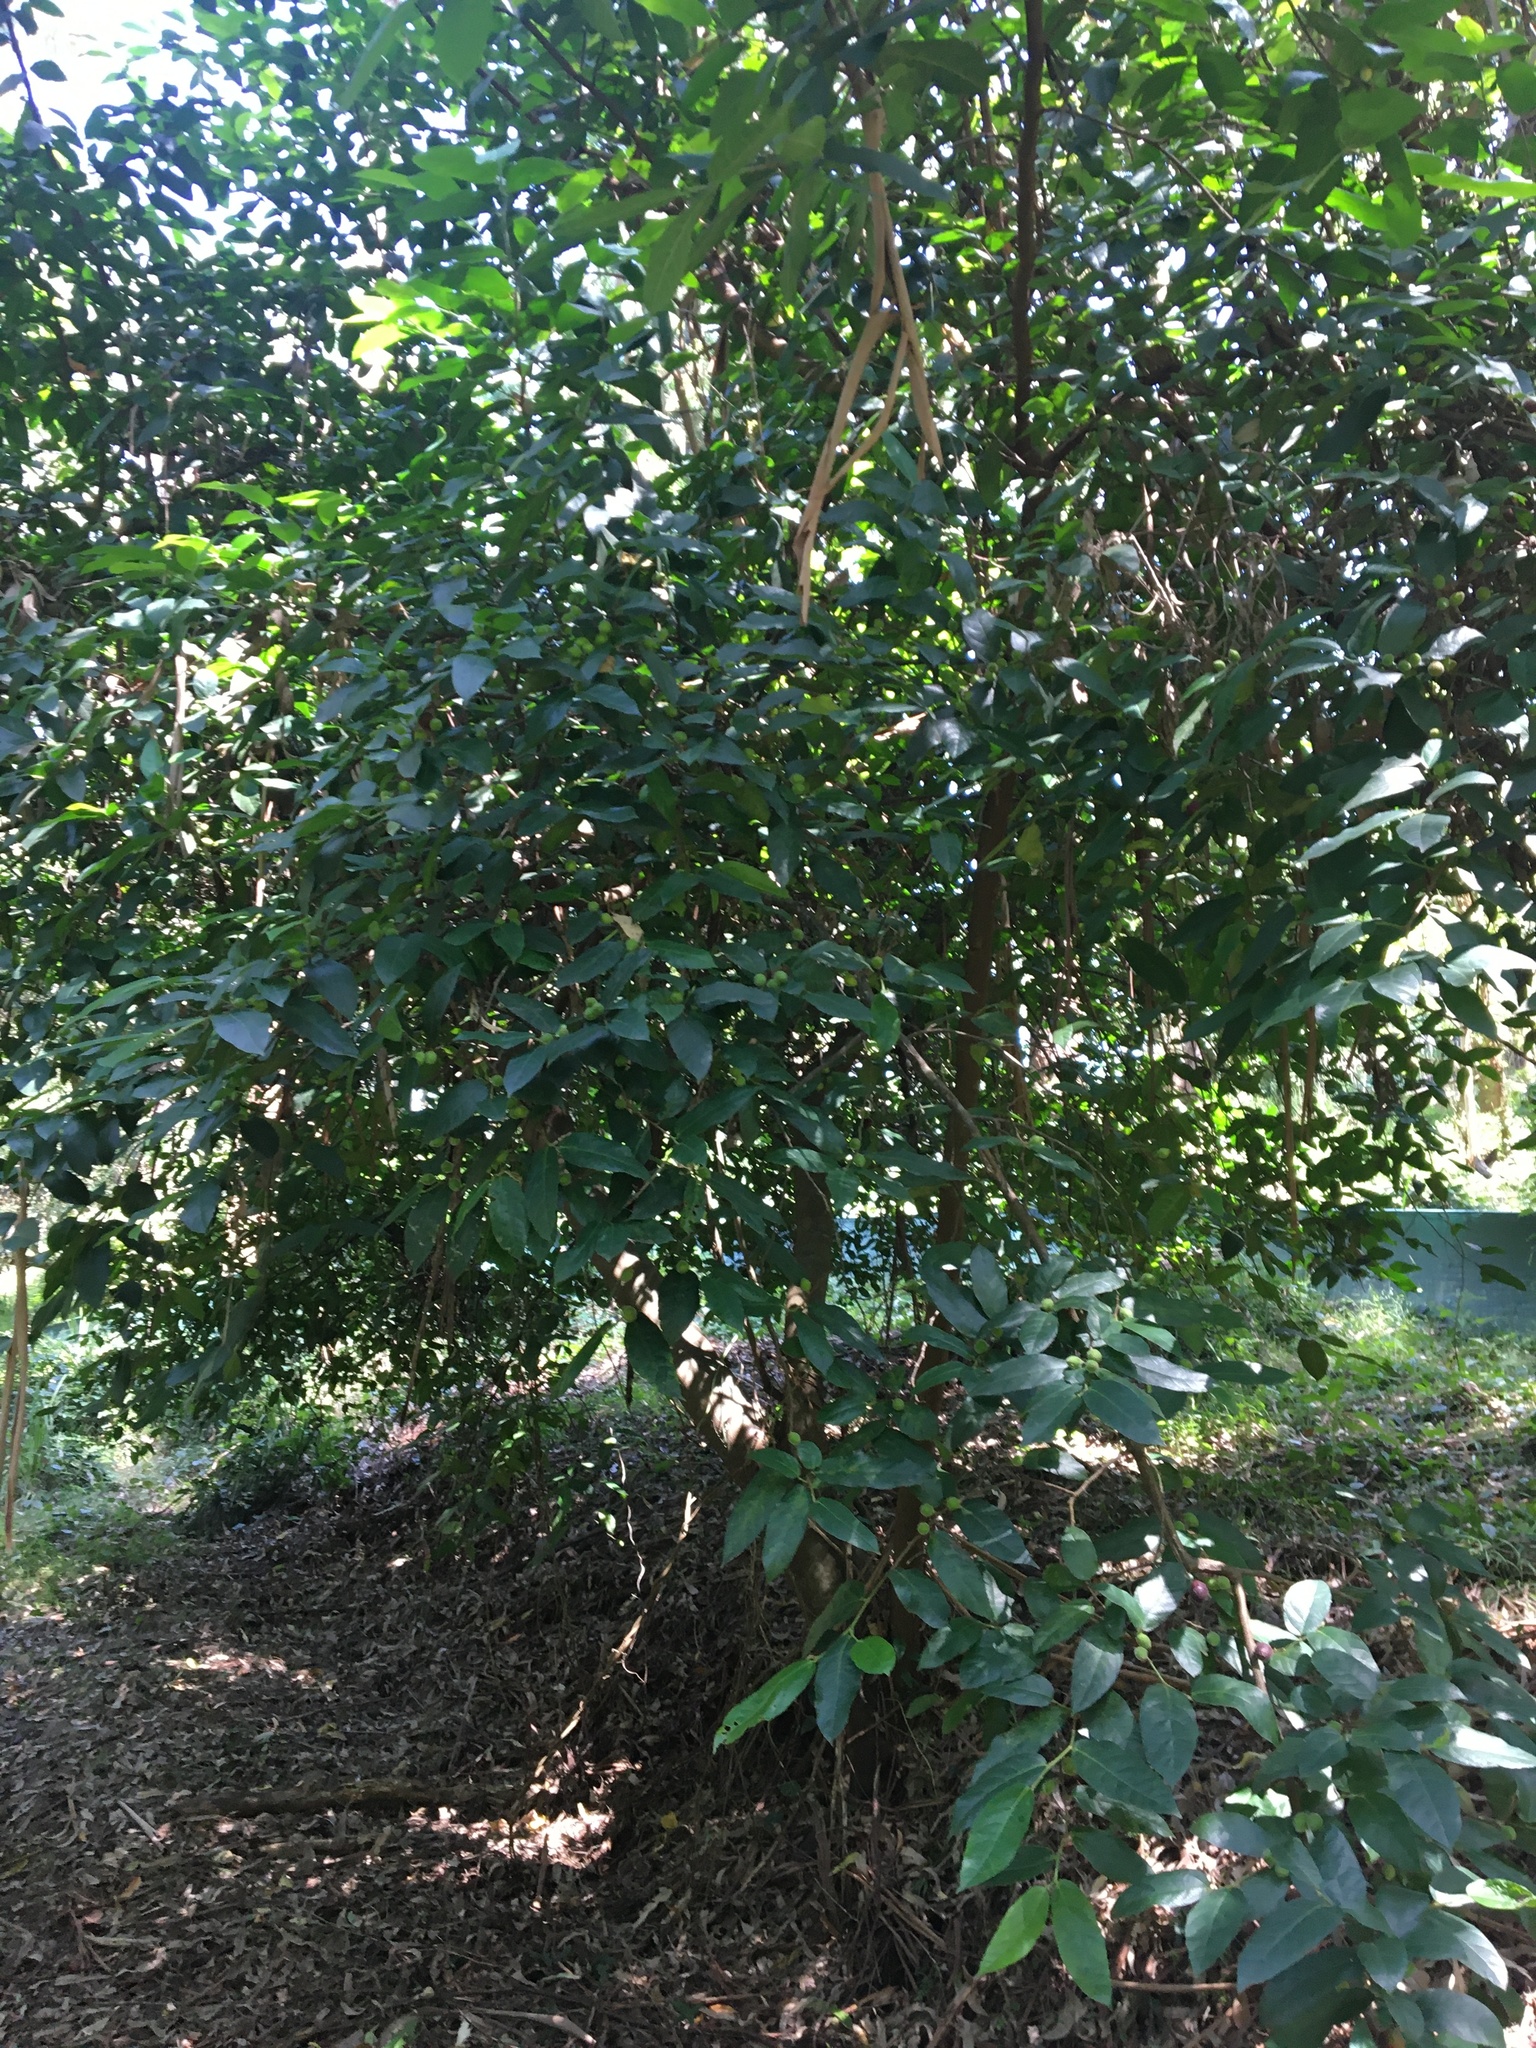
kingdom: Plantae
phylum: Tracheophyta
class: Magnoliopsida
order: Rosales
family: Moraceae
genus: Ficus
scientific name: Ficus coronata
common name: Creek sandpaper fig
